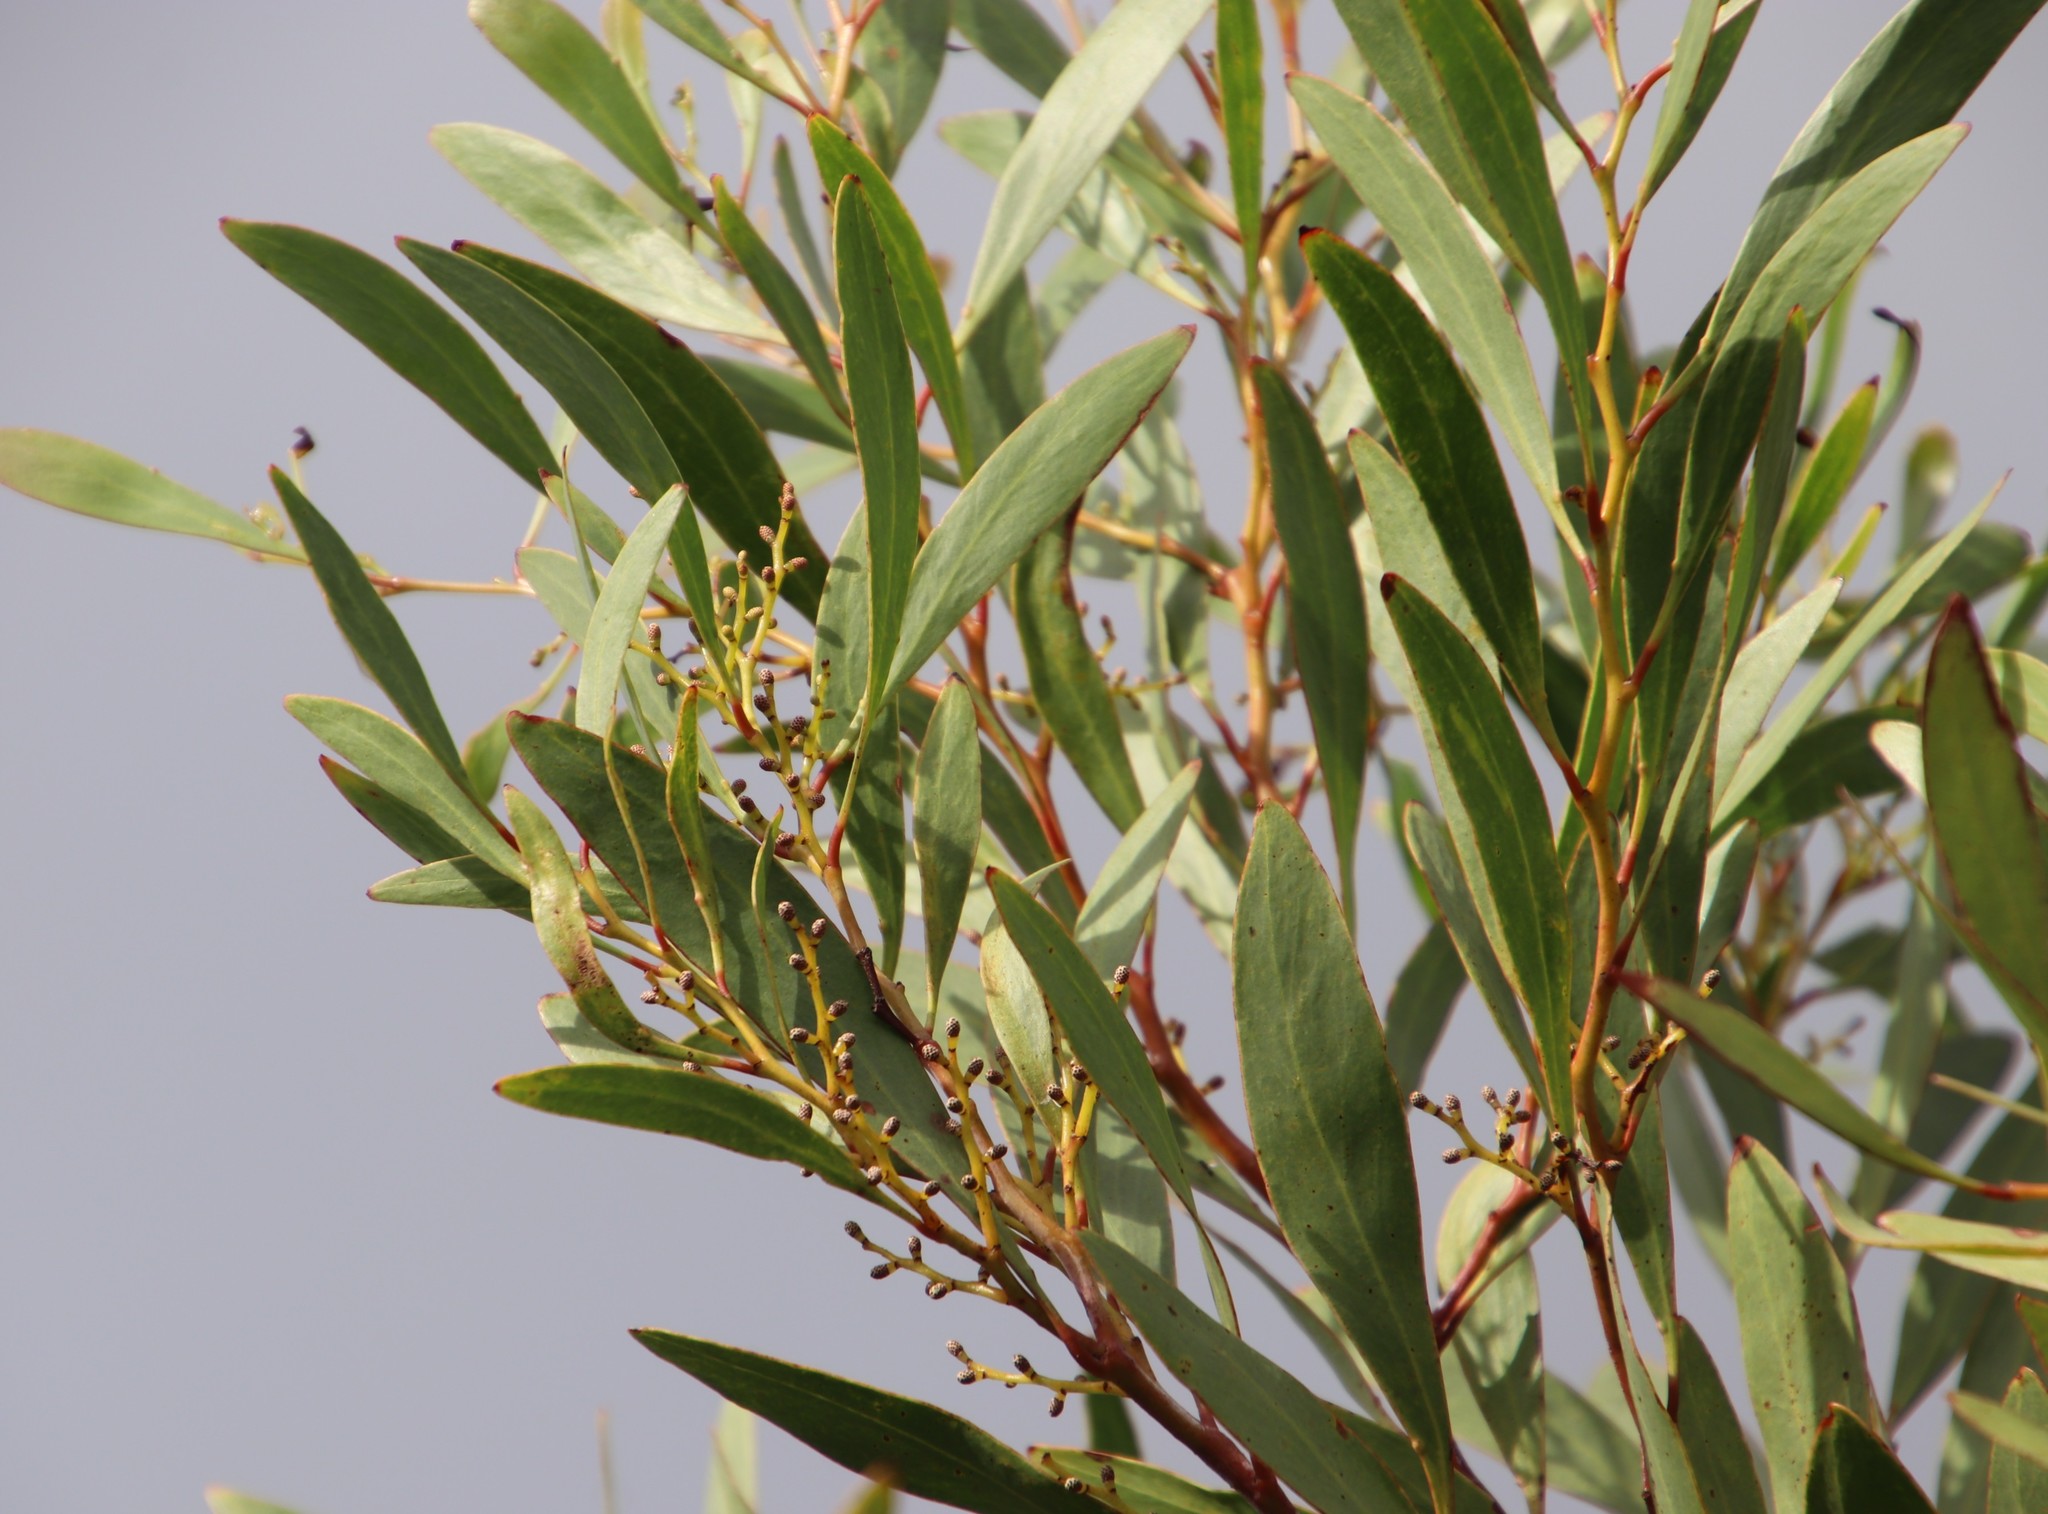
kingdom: Plantae
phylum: Tracheophyta
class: Magnoliopsida
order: Fabales
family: Fabaceae
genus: Acacia
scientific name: Acacia pycnantha
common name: Golden wattle
